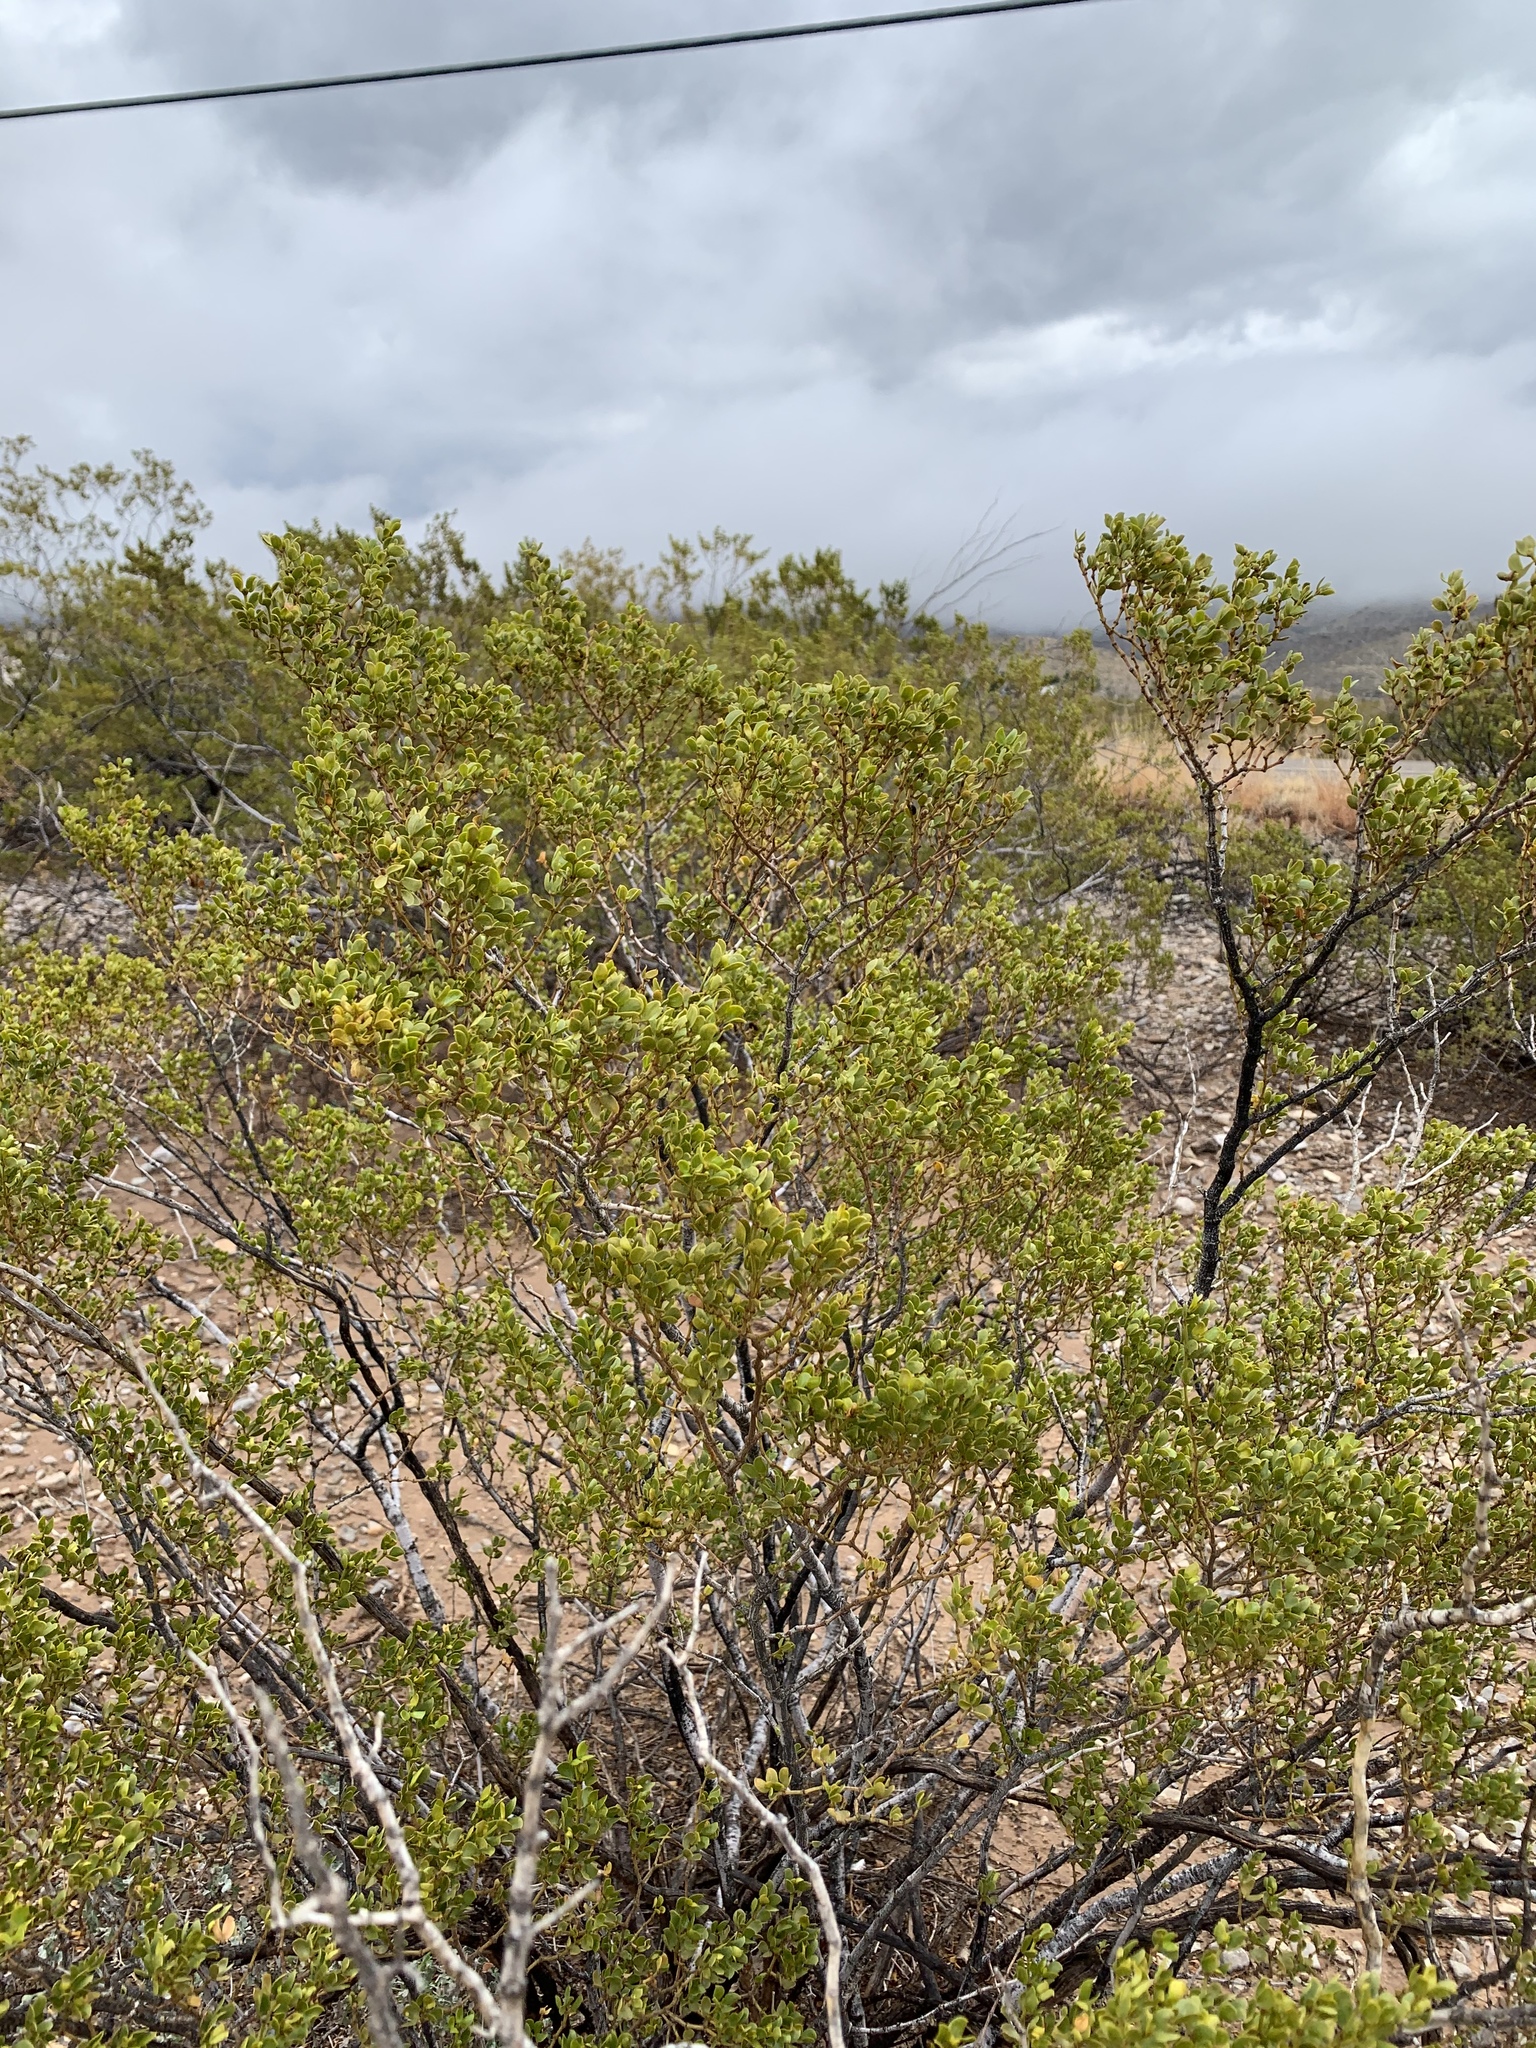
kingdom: Plantae
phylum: Tracheophyta
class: Magnoliopsida
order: Zygophyllales
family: Zygophyllaceae
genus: Larrea
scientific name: Larrea tridentata
